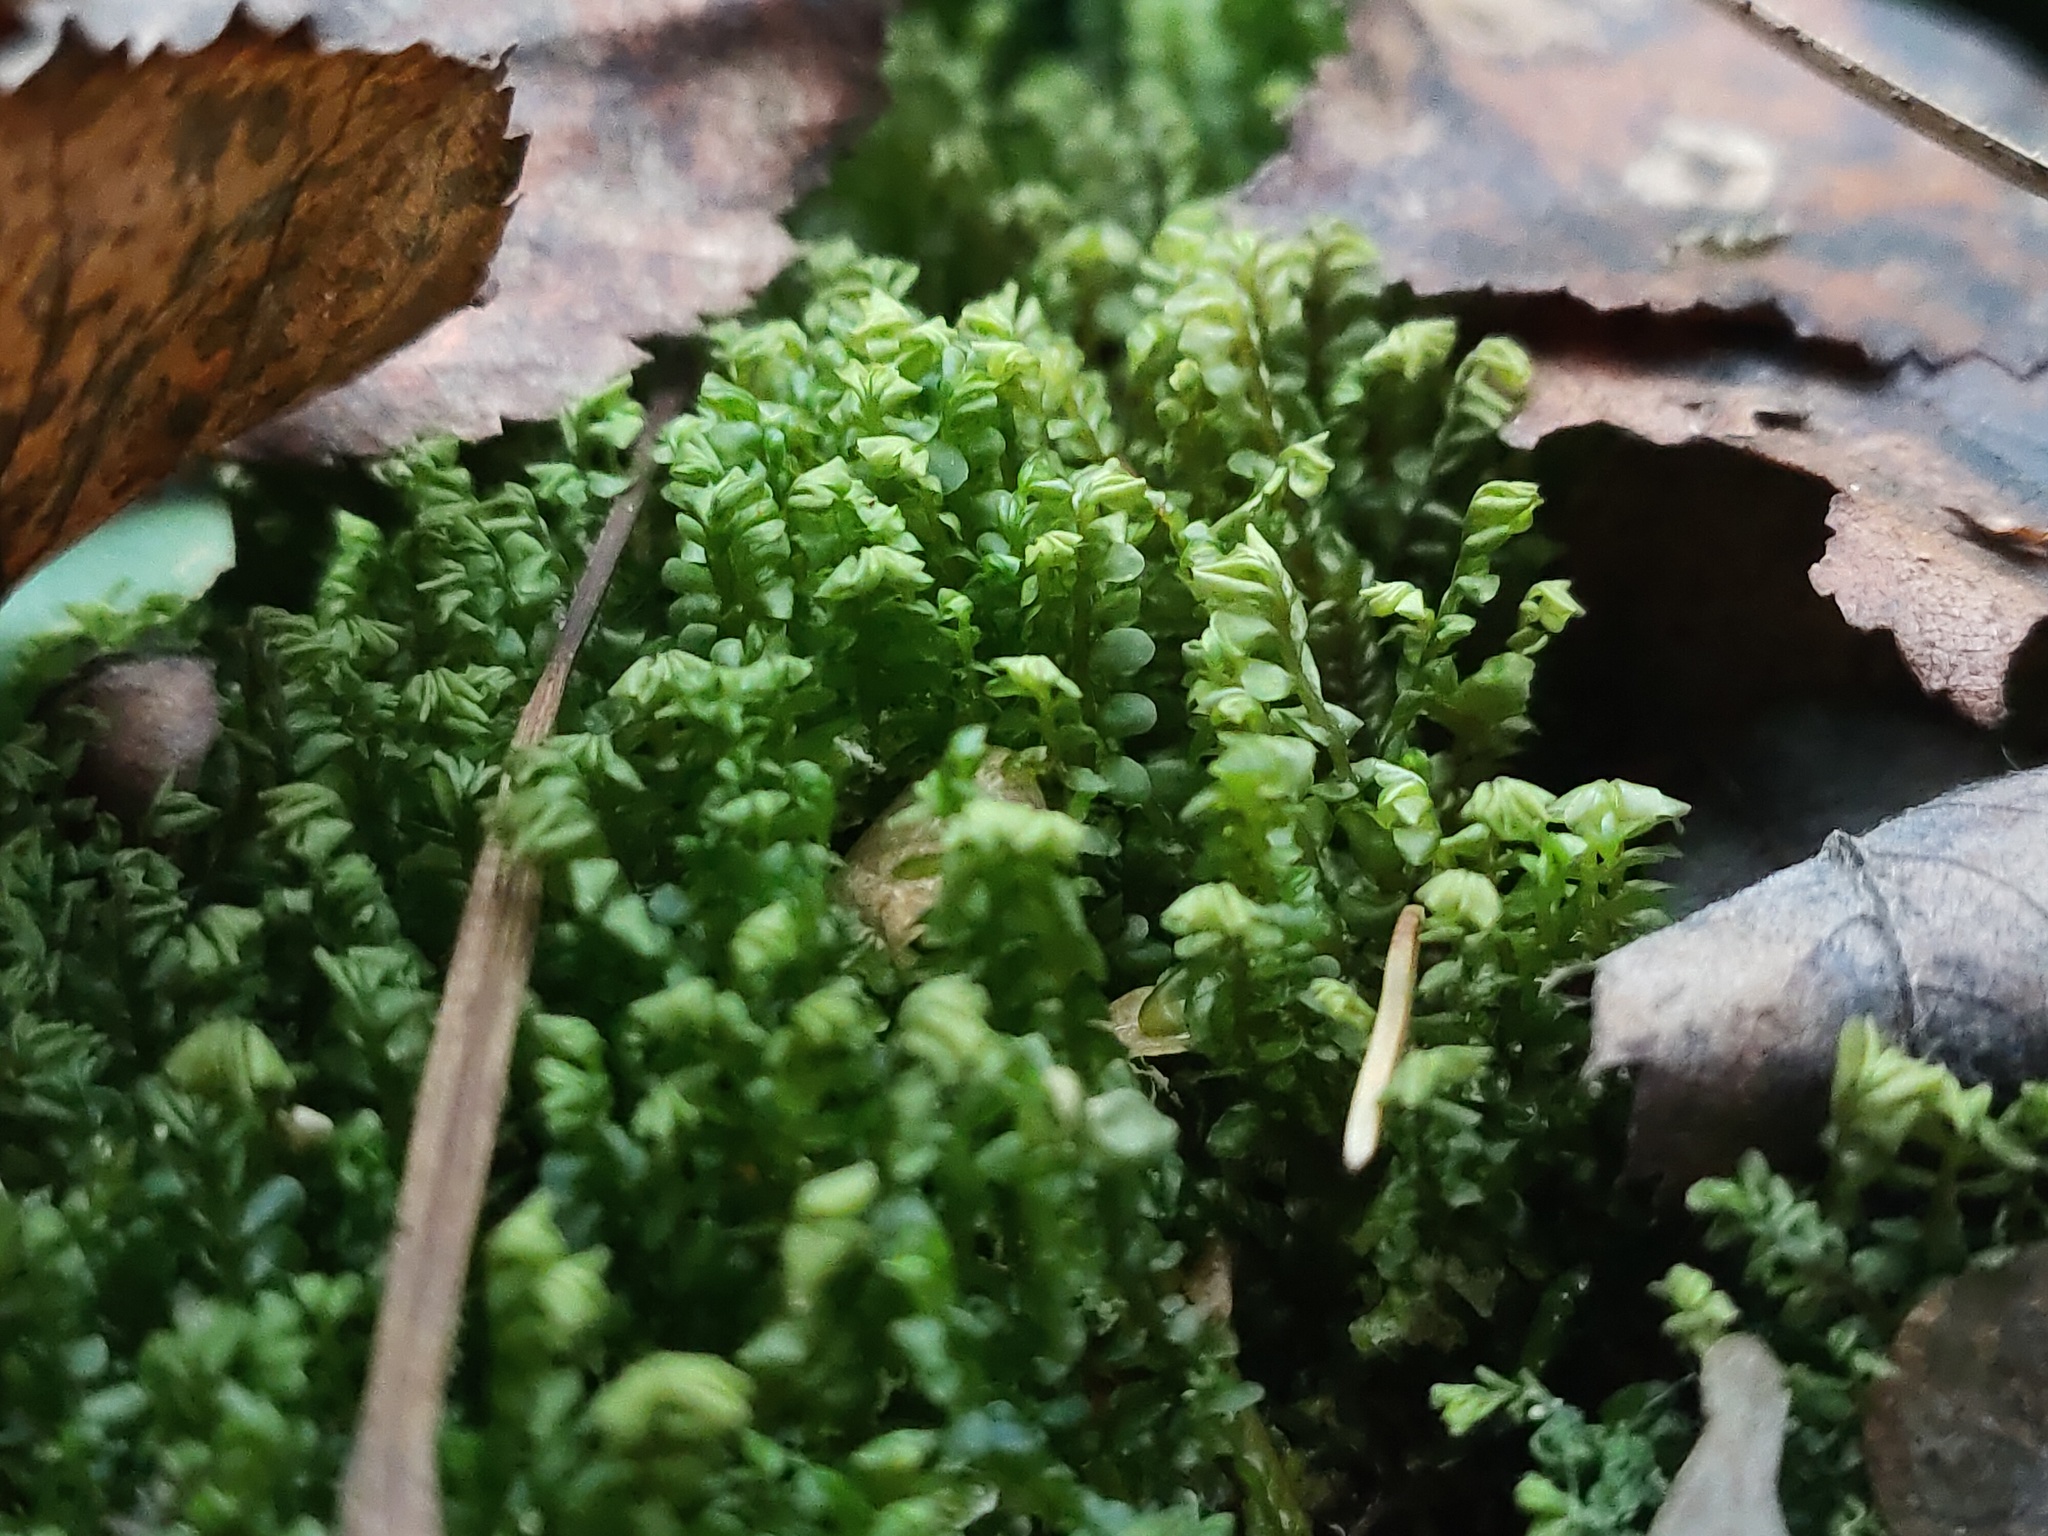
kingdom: Plantae
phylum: Marchantiophyta
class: Jungermanniopsida
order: Jungermanniales
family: Plagiochilaceae
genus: Plagiochila
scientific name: Plagiochila asplenioides
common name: Greater featherwort
